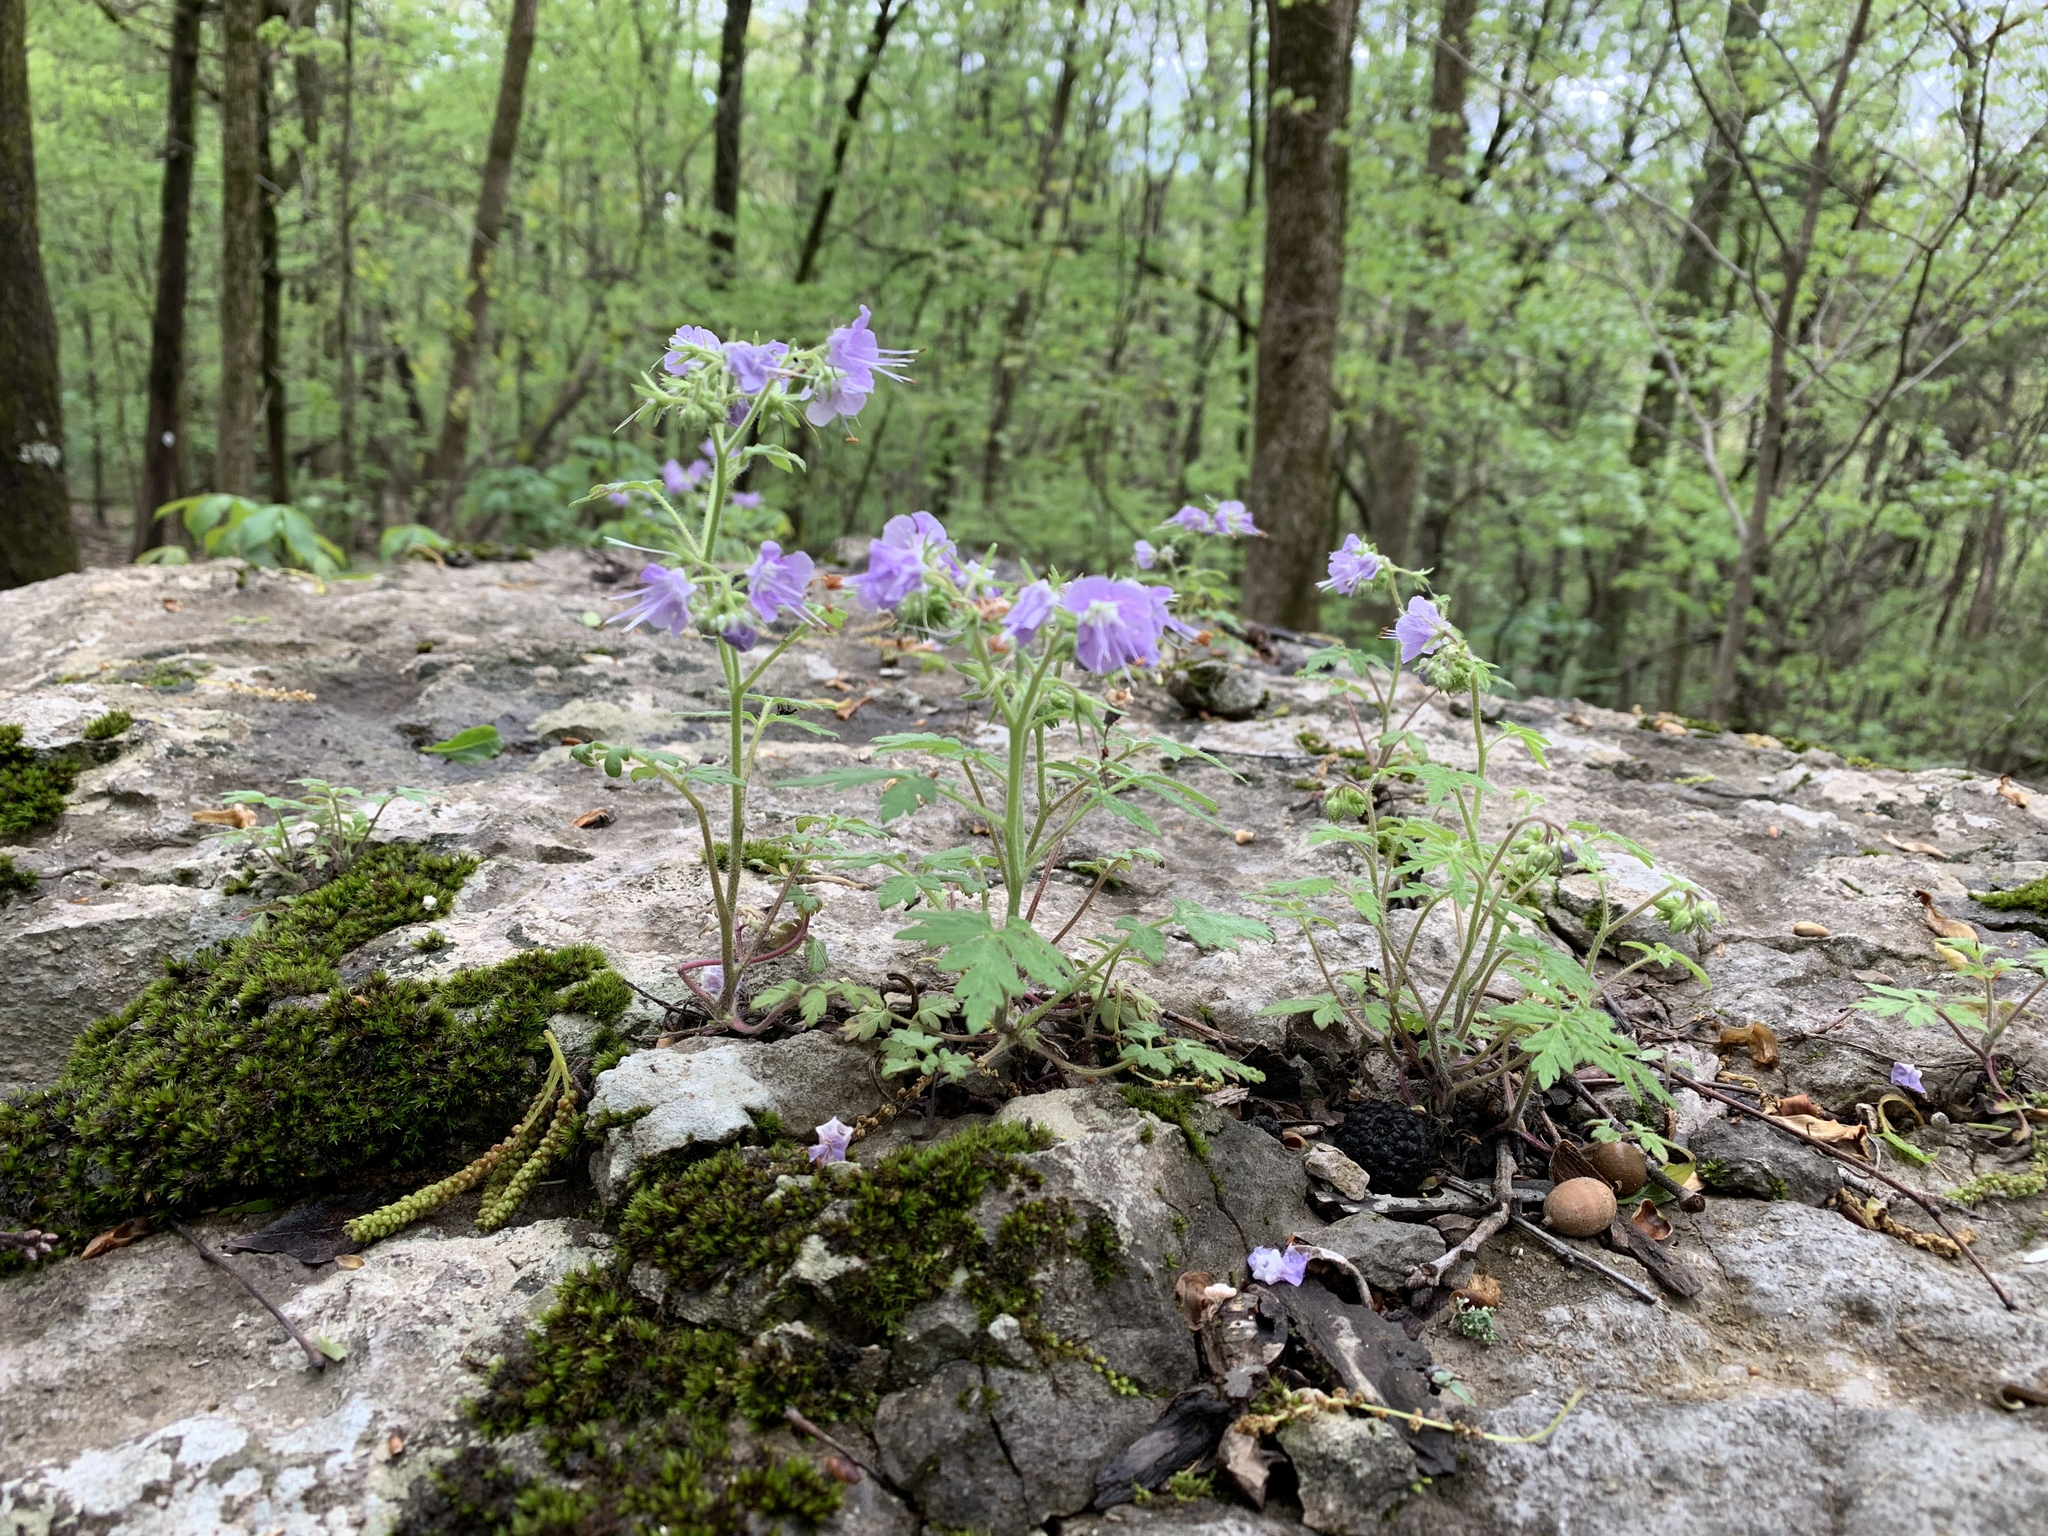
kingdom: Plantae
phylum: Tracheophyta
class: Magnoliopsida
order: Boraginales
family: Hydrophyllaceae
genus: Phacelia
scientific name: Phacelia bipinnatifida
